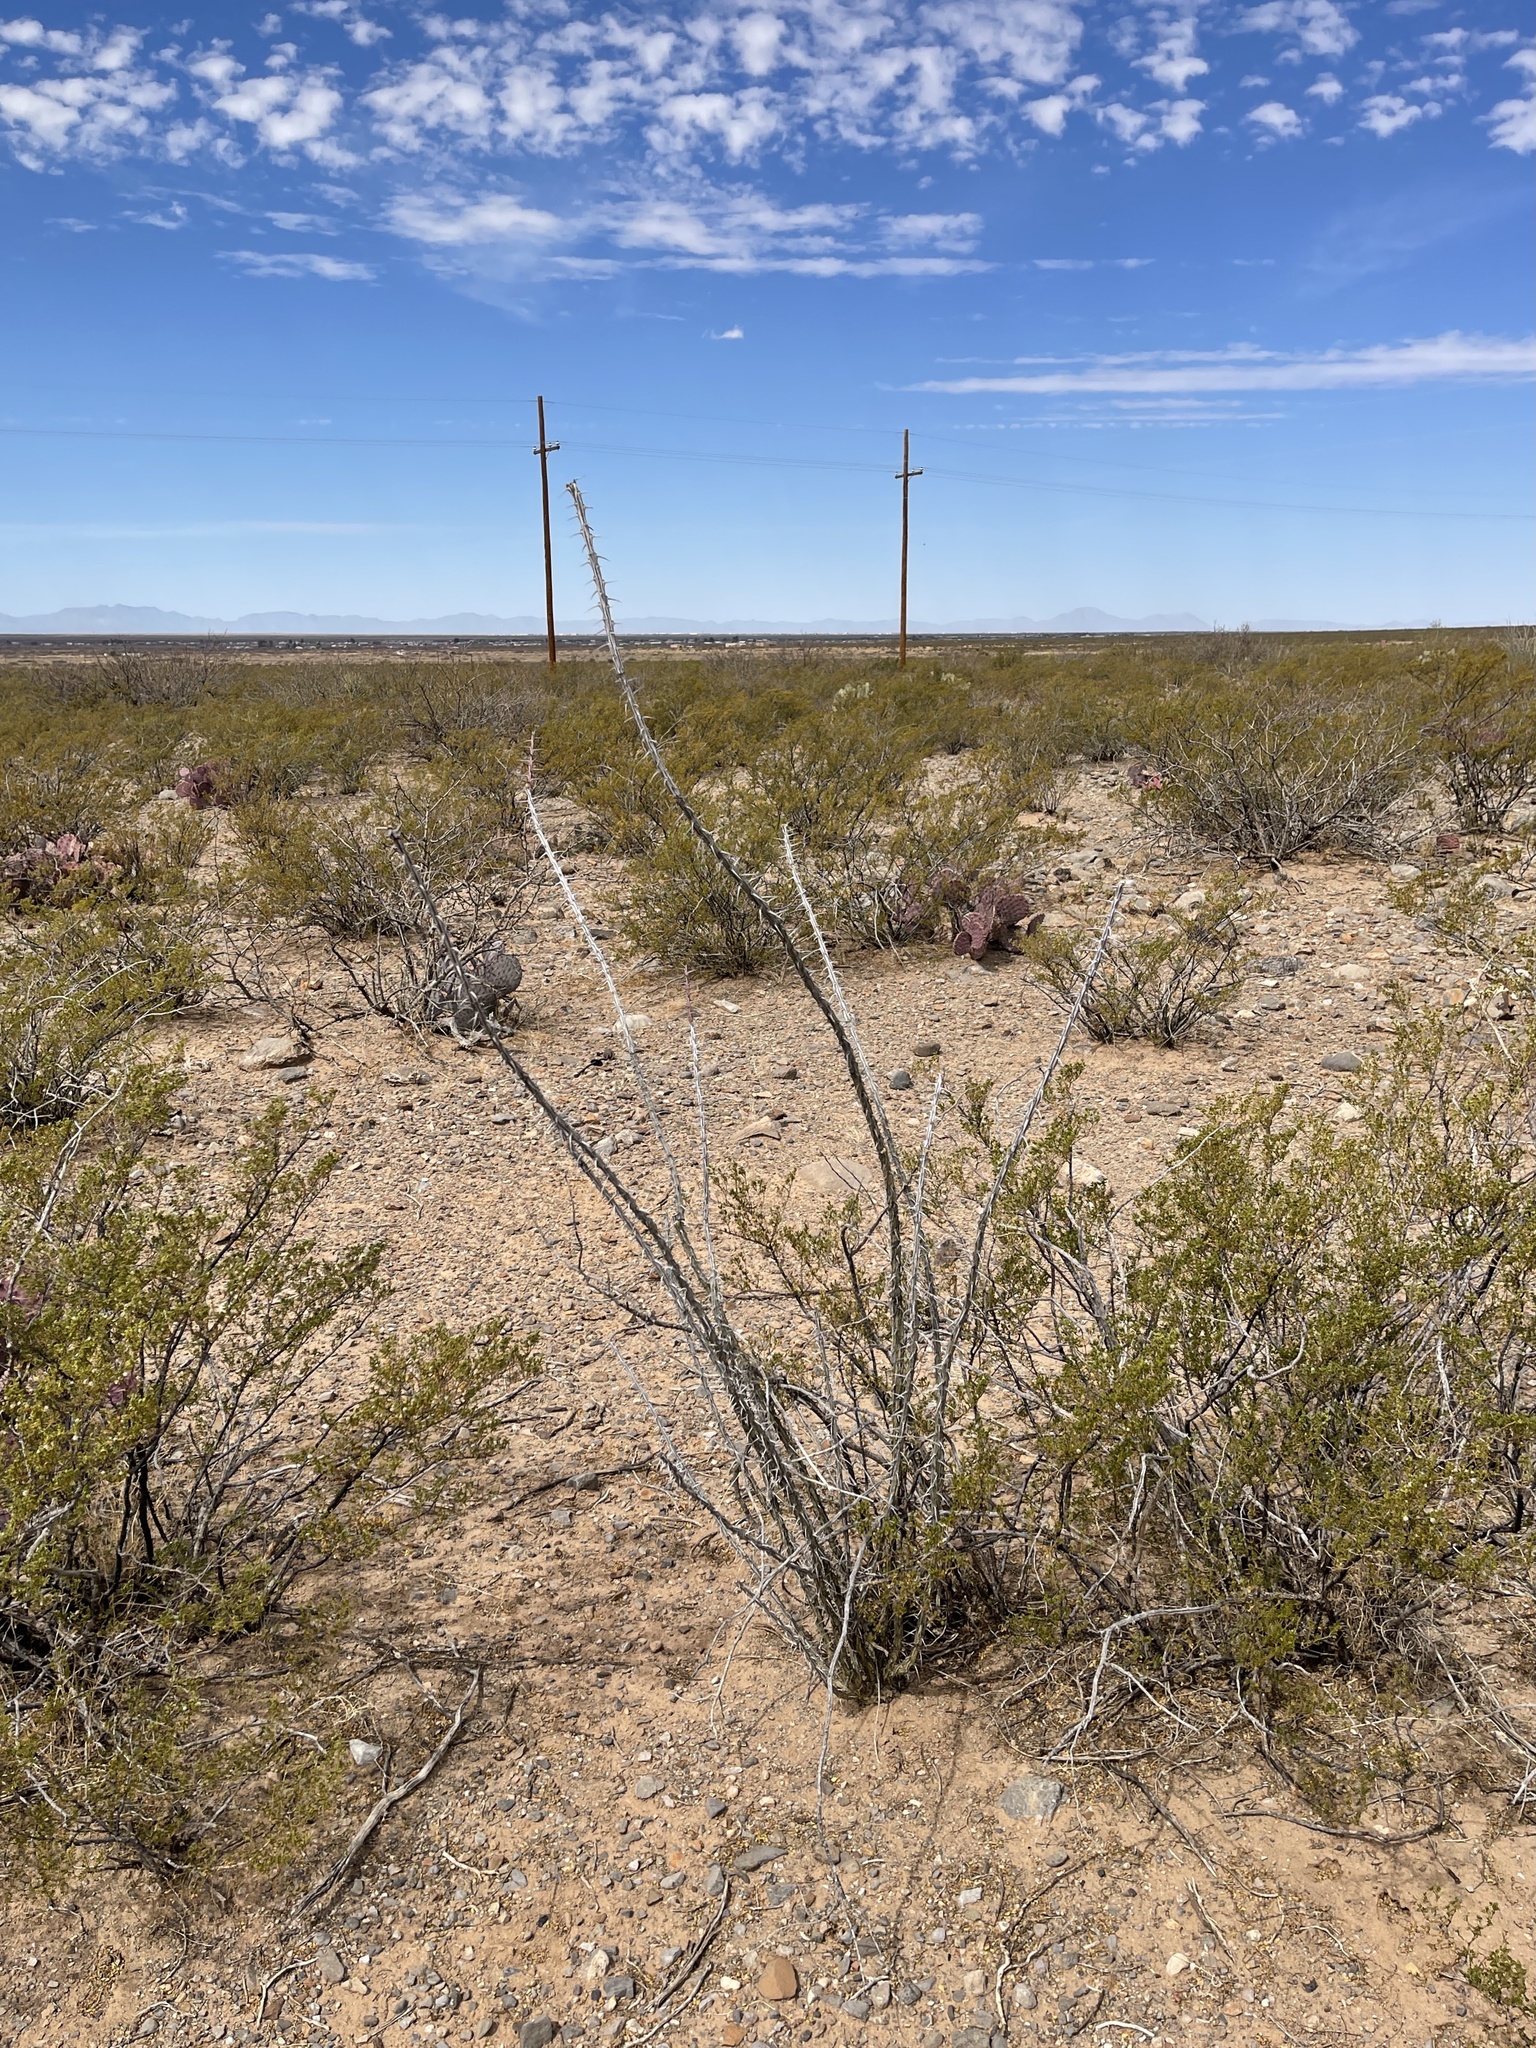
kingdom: Plantae
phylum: Tracheophyta
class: Magnoliopsida
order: Ericales
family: Fouquieriaceae
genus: Fouquieria
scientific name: Fouquieria splendens
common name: Vine-cactus
